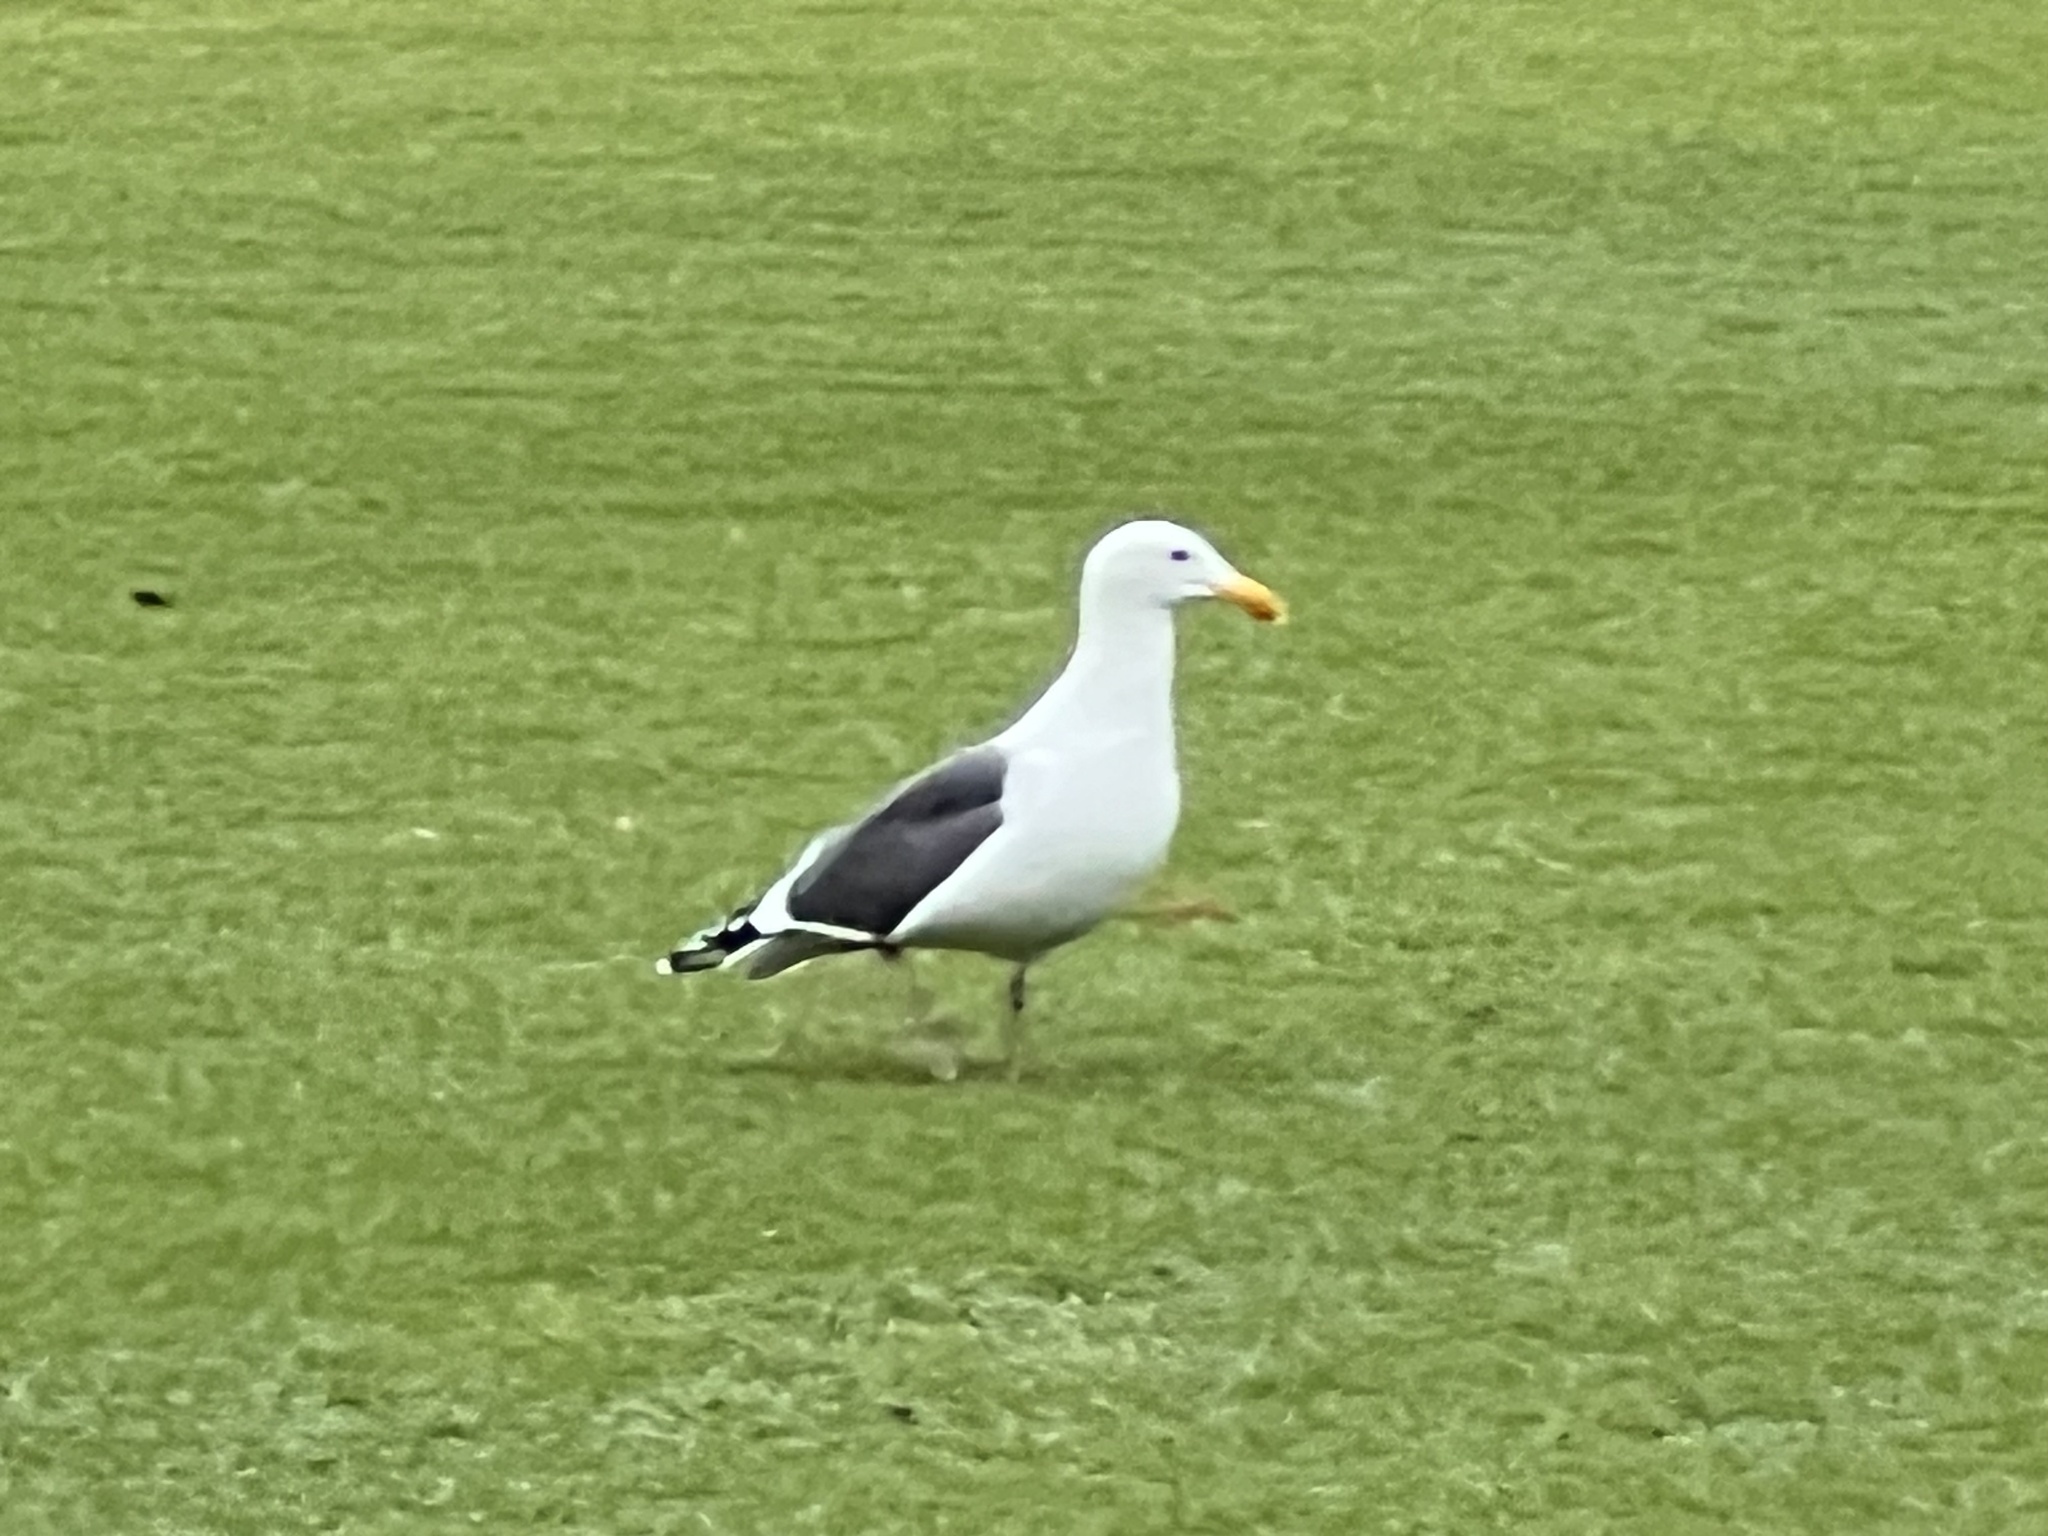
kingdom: Animalia
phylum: Chordata
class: Aves
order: Charadriiformes
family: Laridae
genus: Larus
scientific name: Larus occidentalis
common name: Western gull
